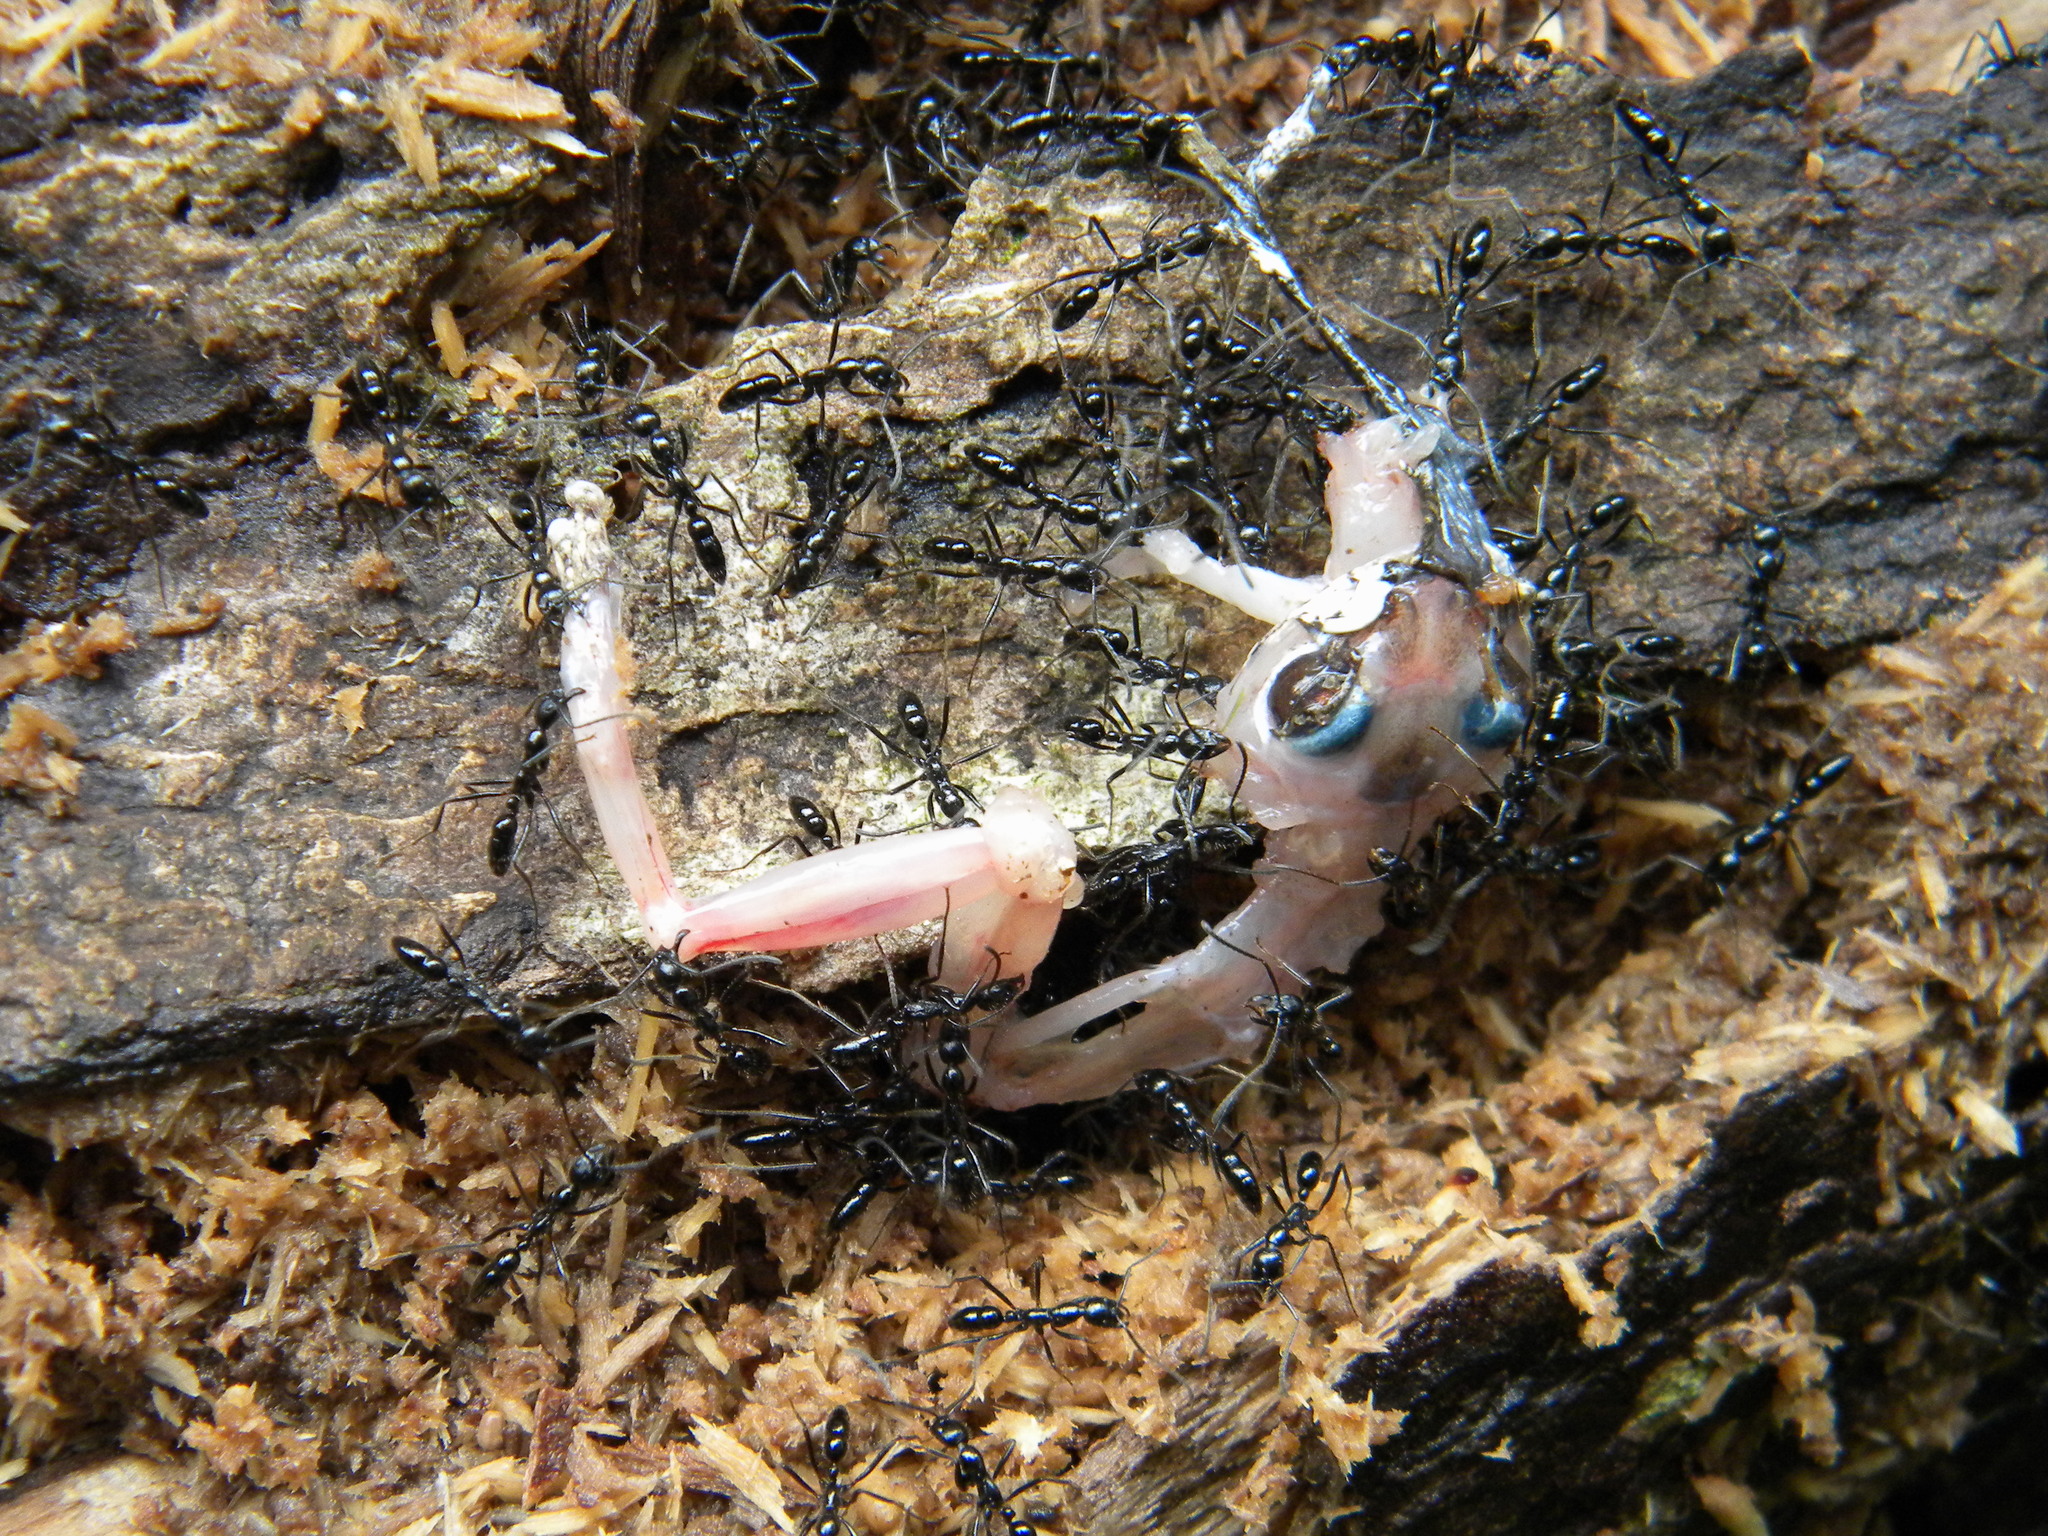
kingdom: Animalia
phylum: Arthropoda
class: Insecta
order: Hymenoptera
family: Formicidae
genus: Leptogenys
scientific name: Leptogenys diminuta
